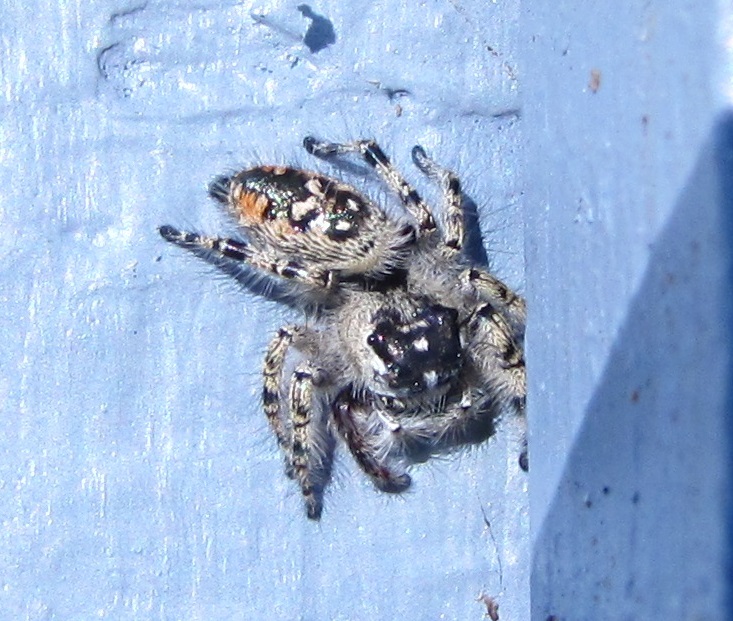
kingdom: Animalia
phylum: Arthropoda
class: Arachnida
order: Araneae
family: Salticidae
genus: Phidippus
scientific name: Phidippus otiosus
